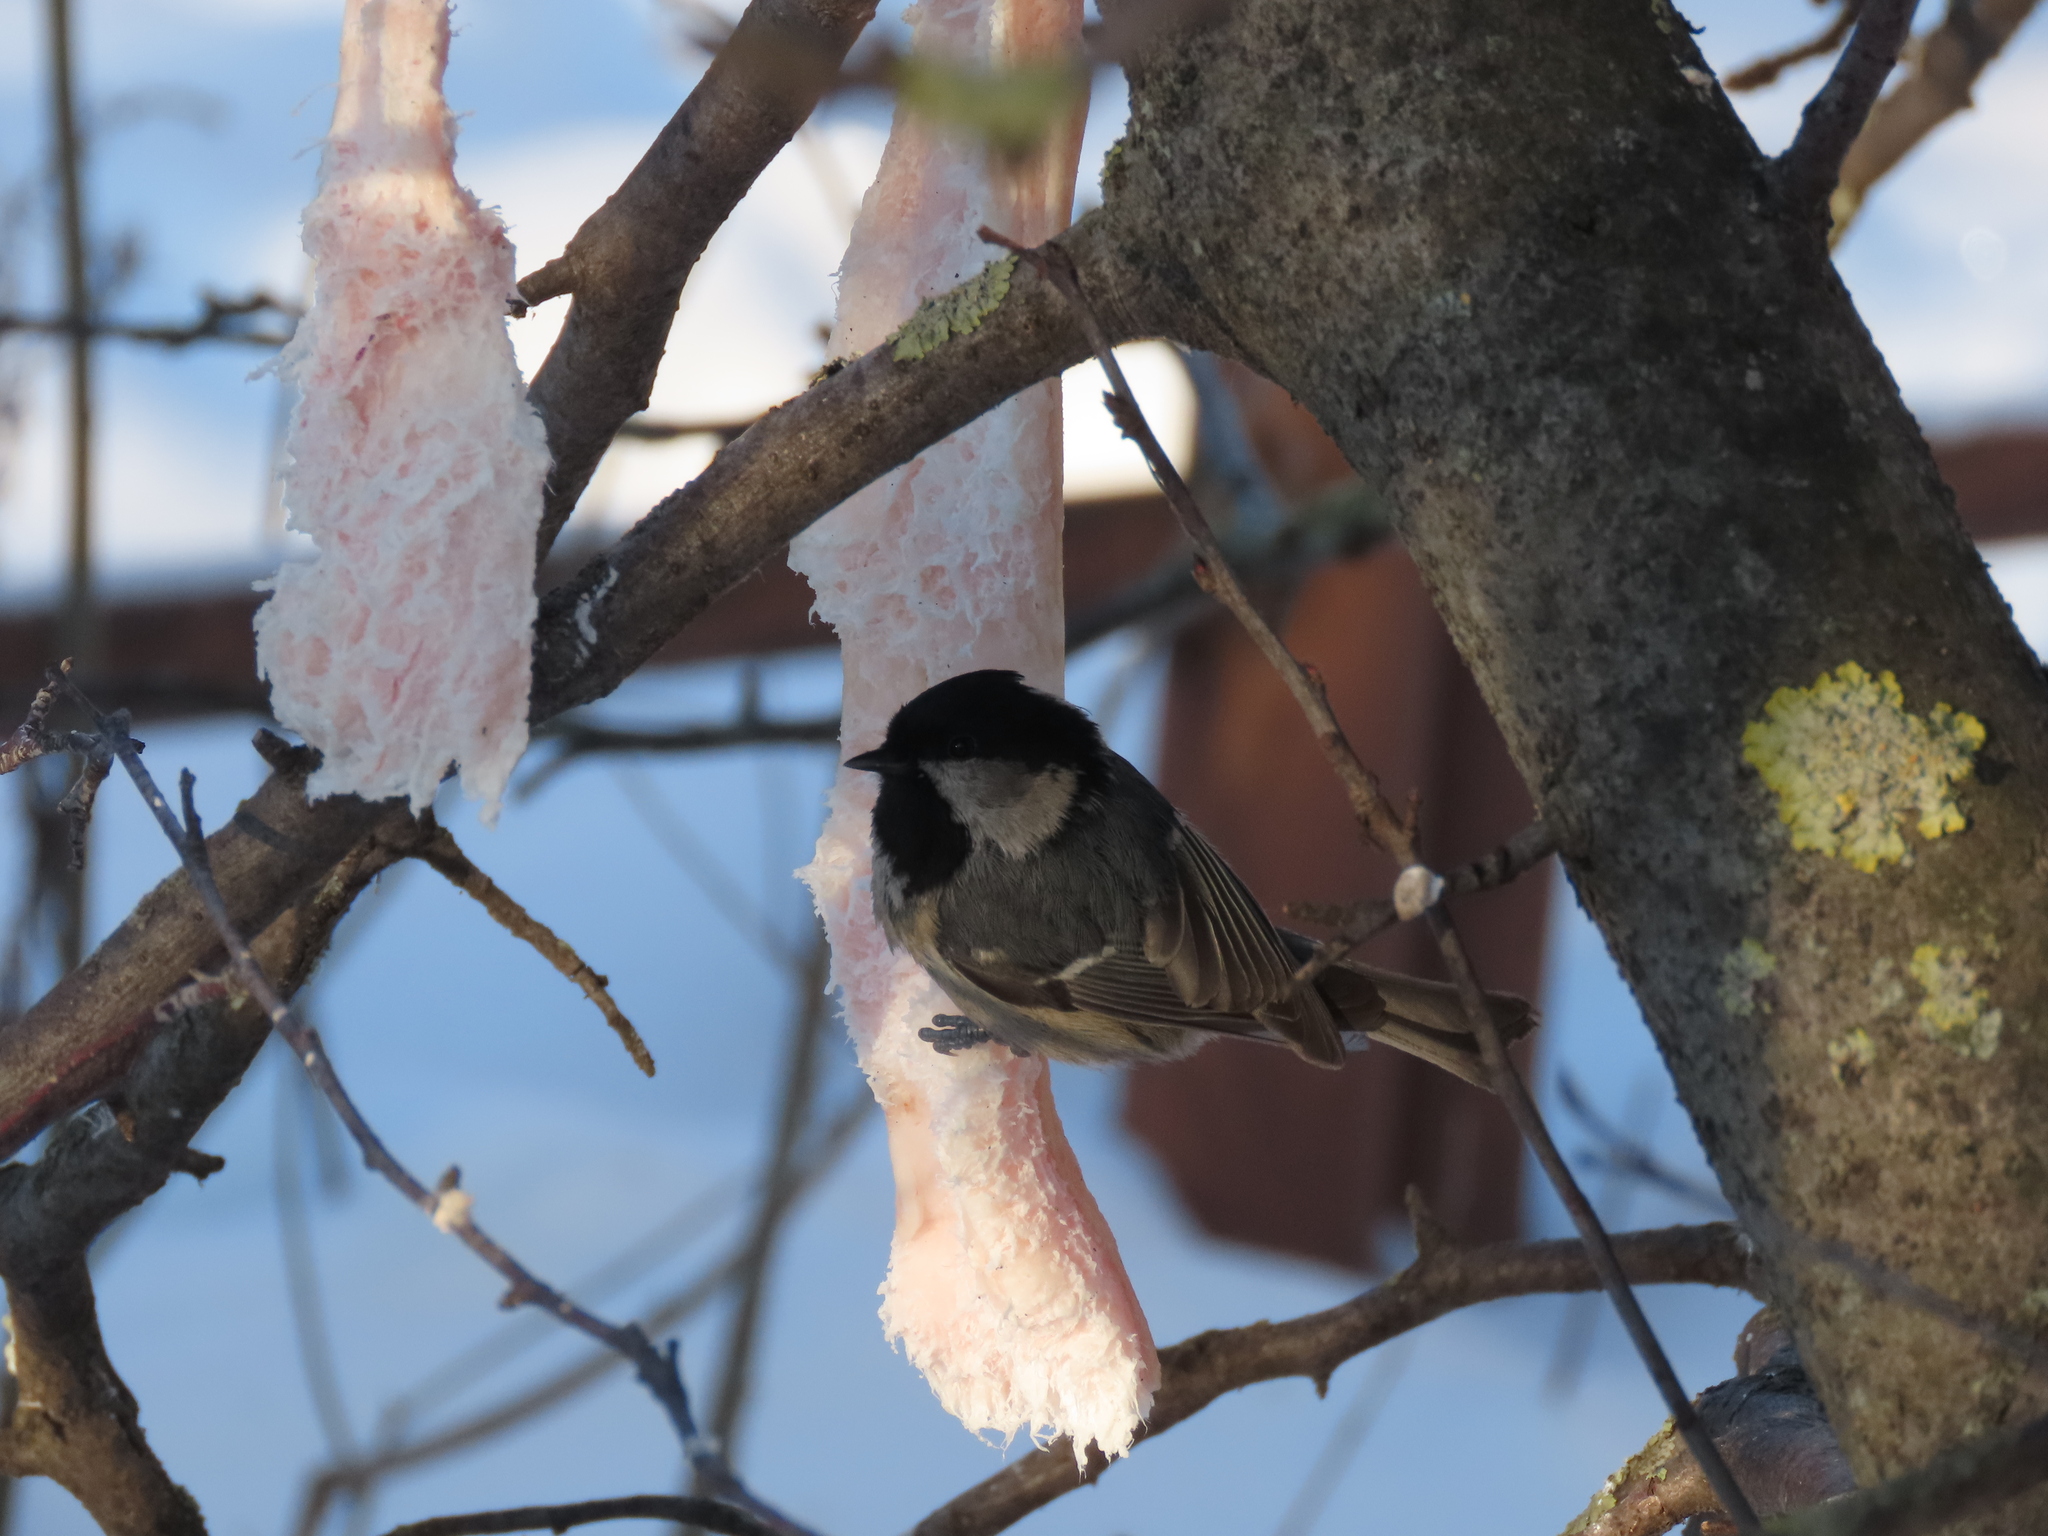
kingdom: Animalia
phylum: Chordata
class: Aves
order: Passeriformes
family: Paridae
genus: Periparus
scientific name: Periparus ater
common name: Coal tit
